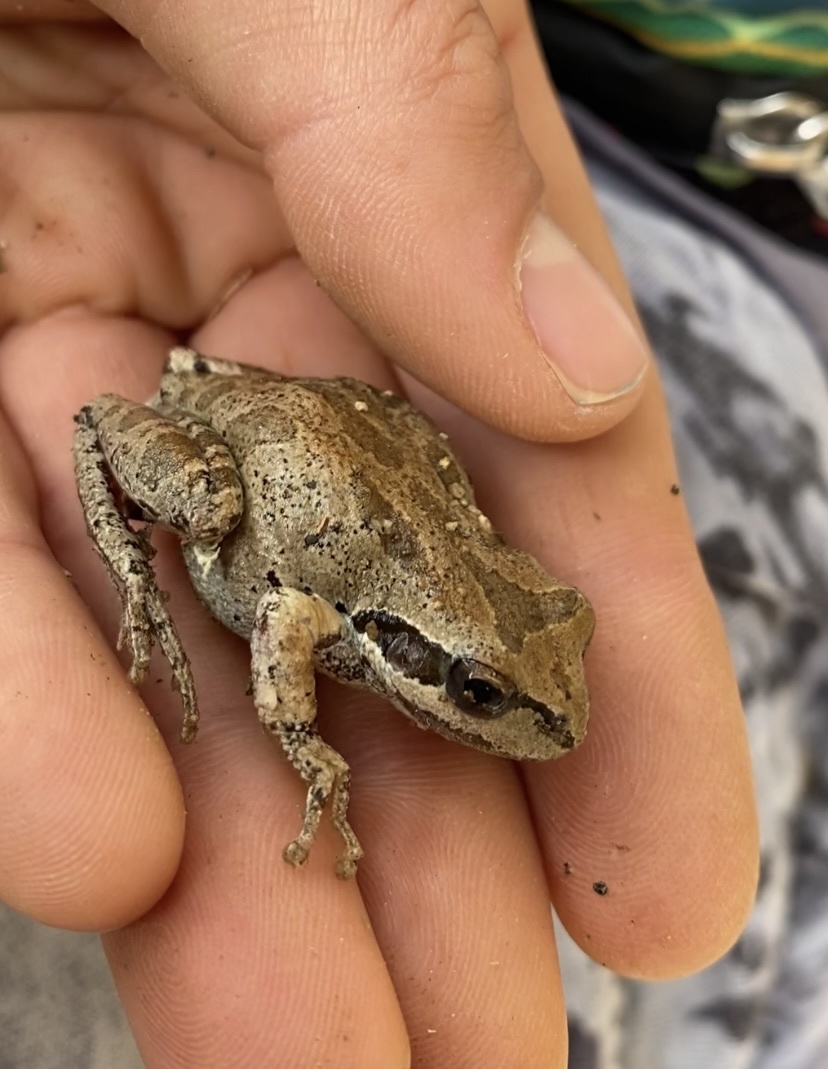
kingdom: Animalia
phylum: Chordata
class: Amphibia
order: Anura
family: Hylidae
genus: Pseudacris
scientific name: Pseudacris regilla
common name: Pacific chorus frog
